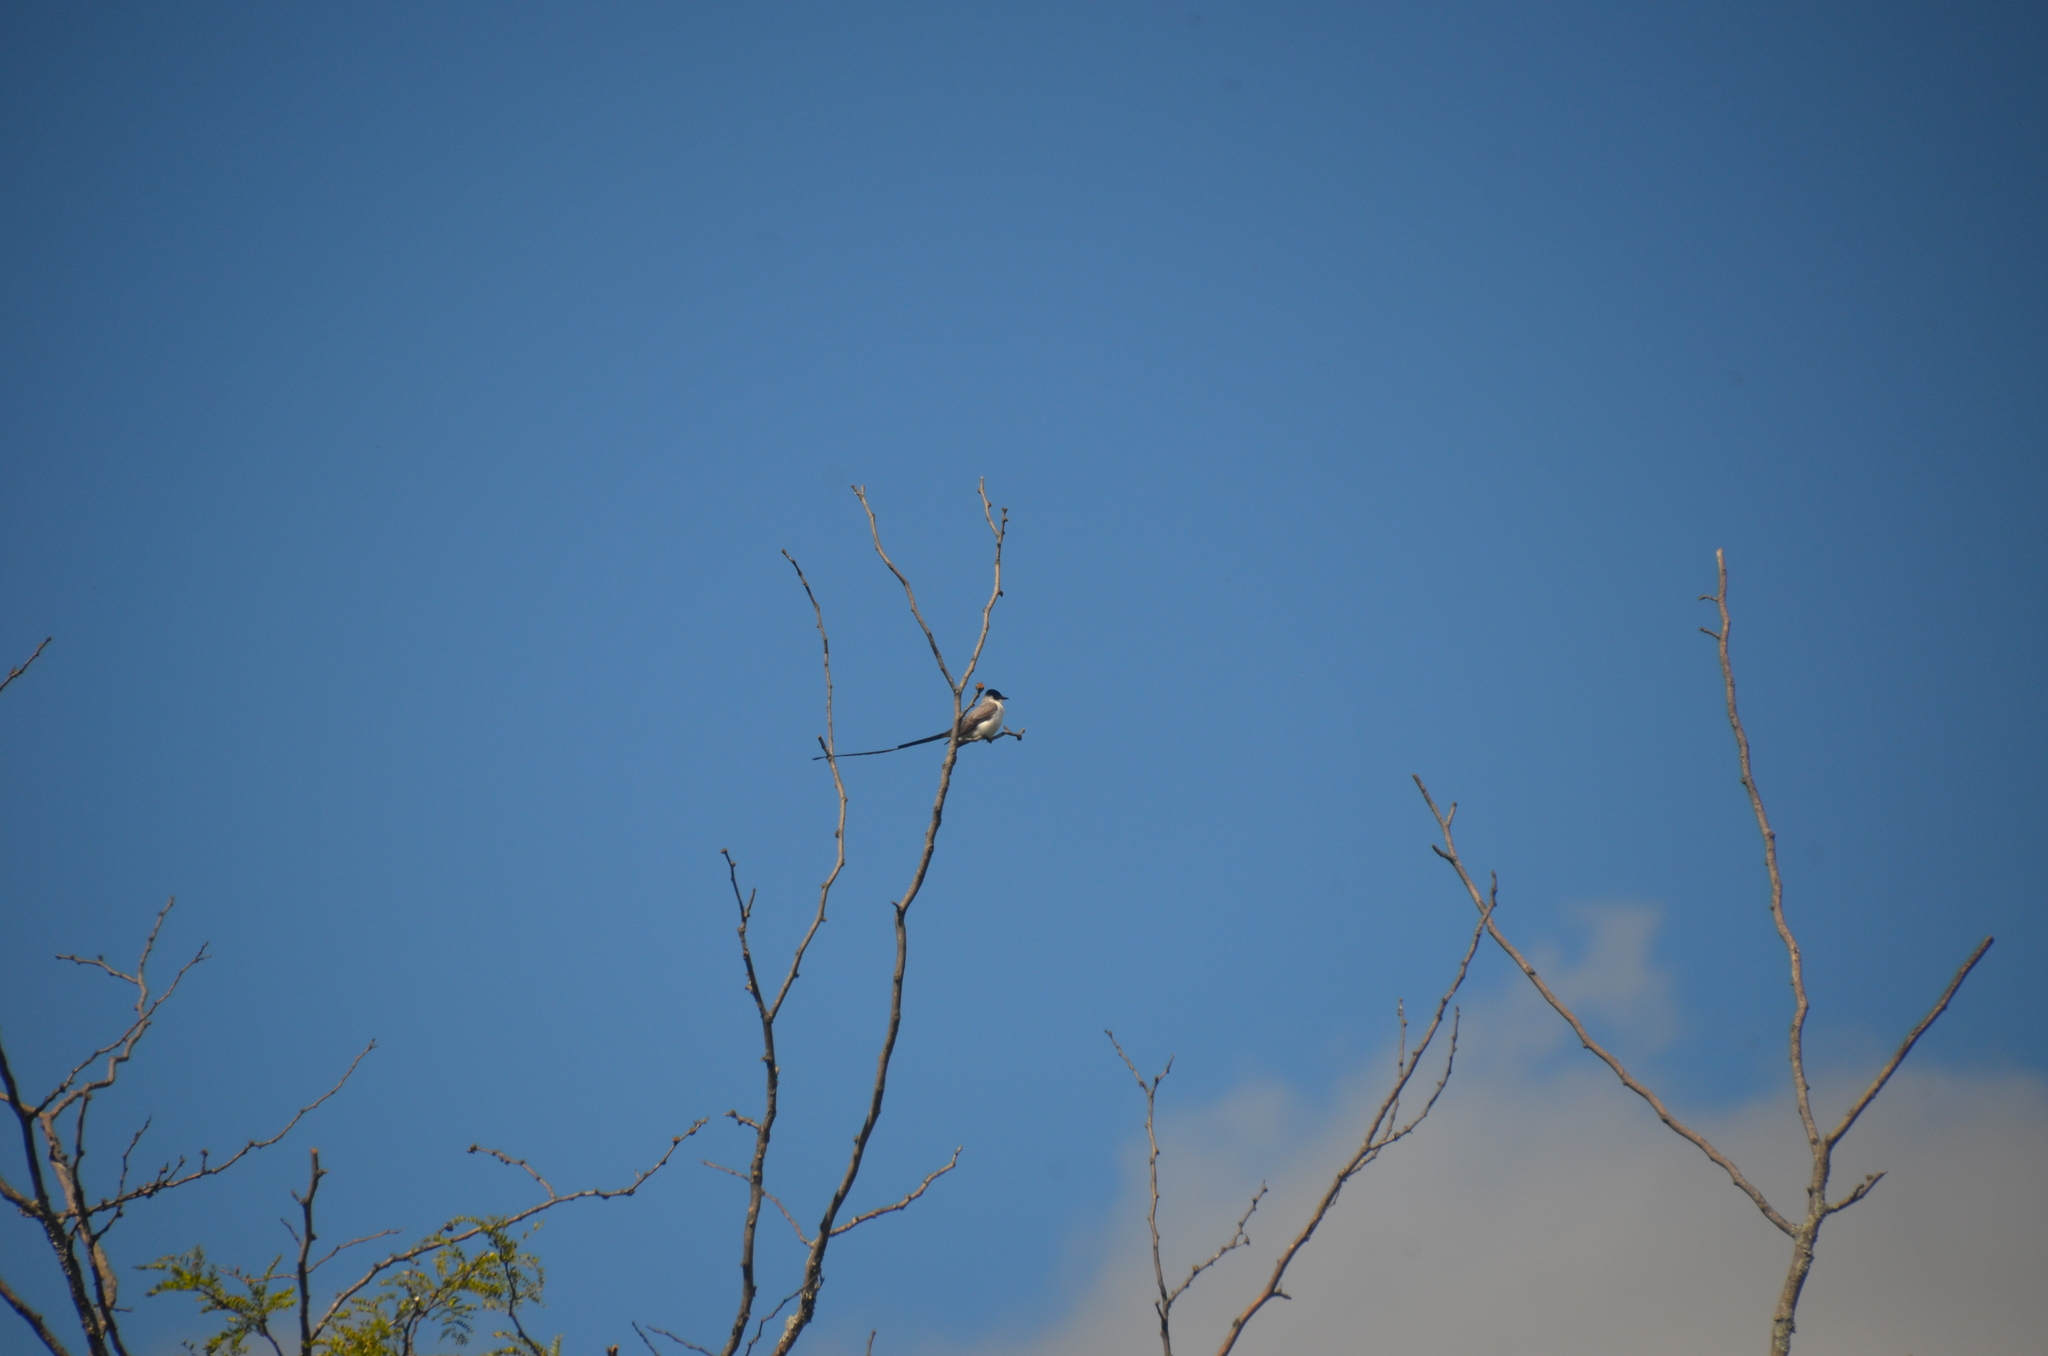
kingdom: Animalia
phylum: Chordata
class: Aves
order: Passeriformes
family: Tyrannidae
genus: Tyrannus
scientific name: Tyrannus savana
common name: Fork-tailed flycatcher
